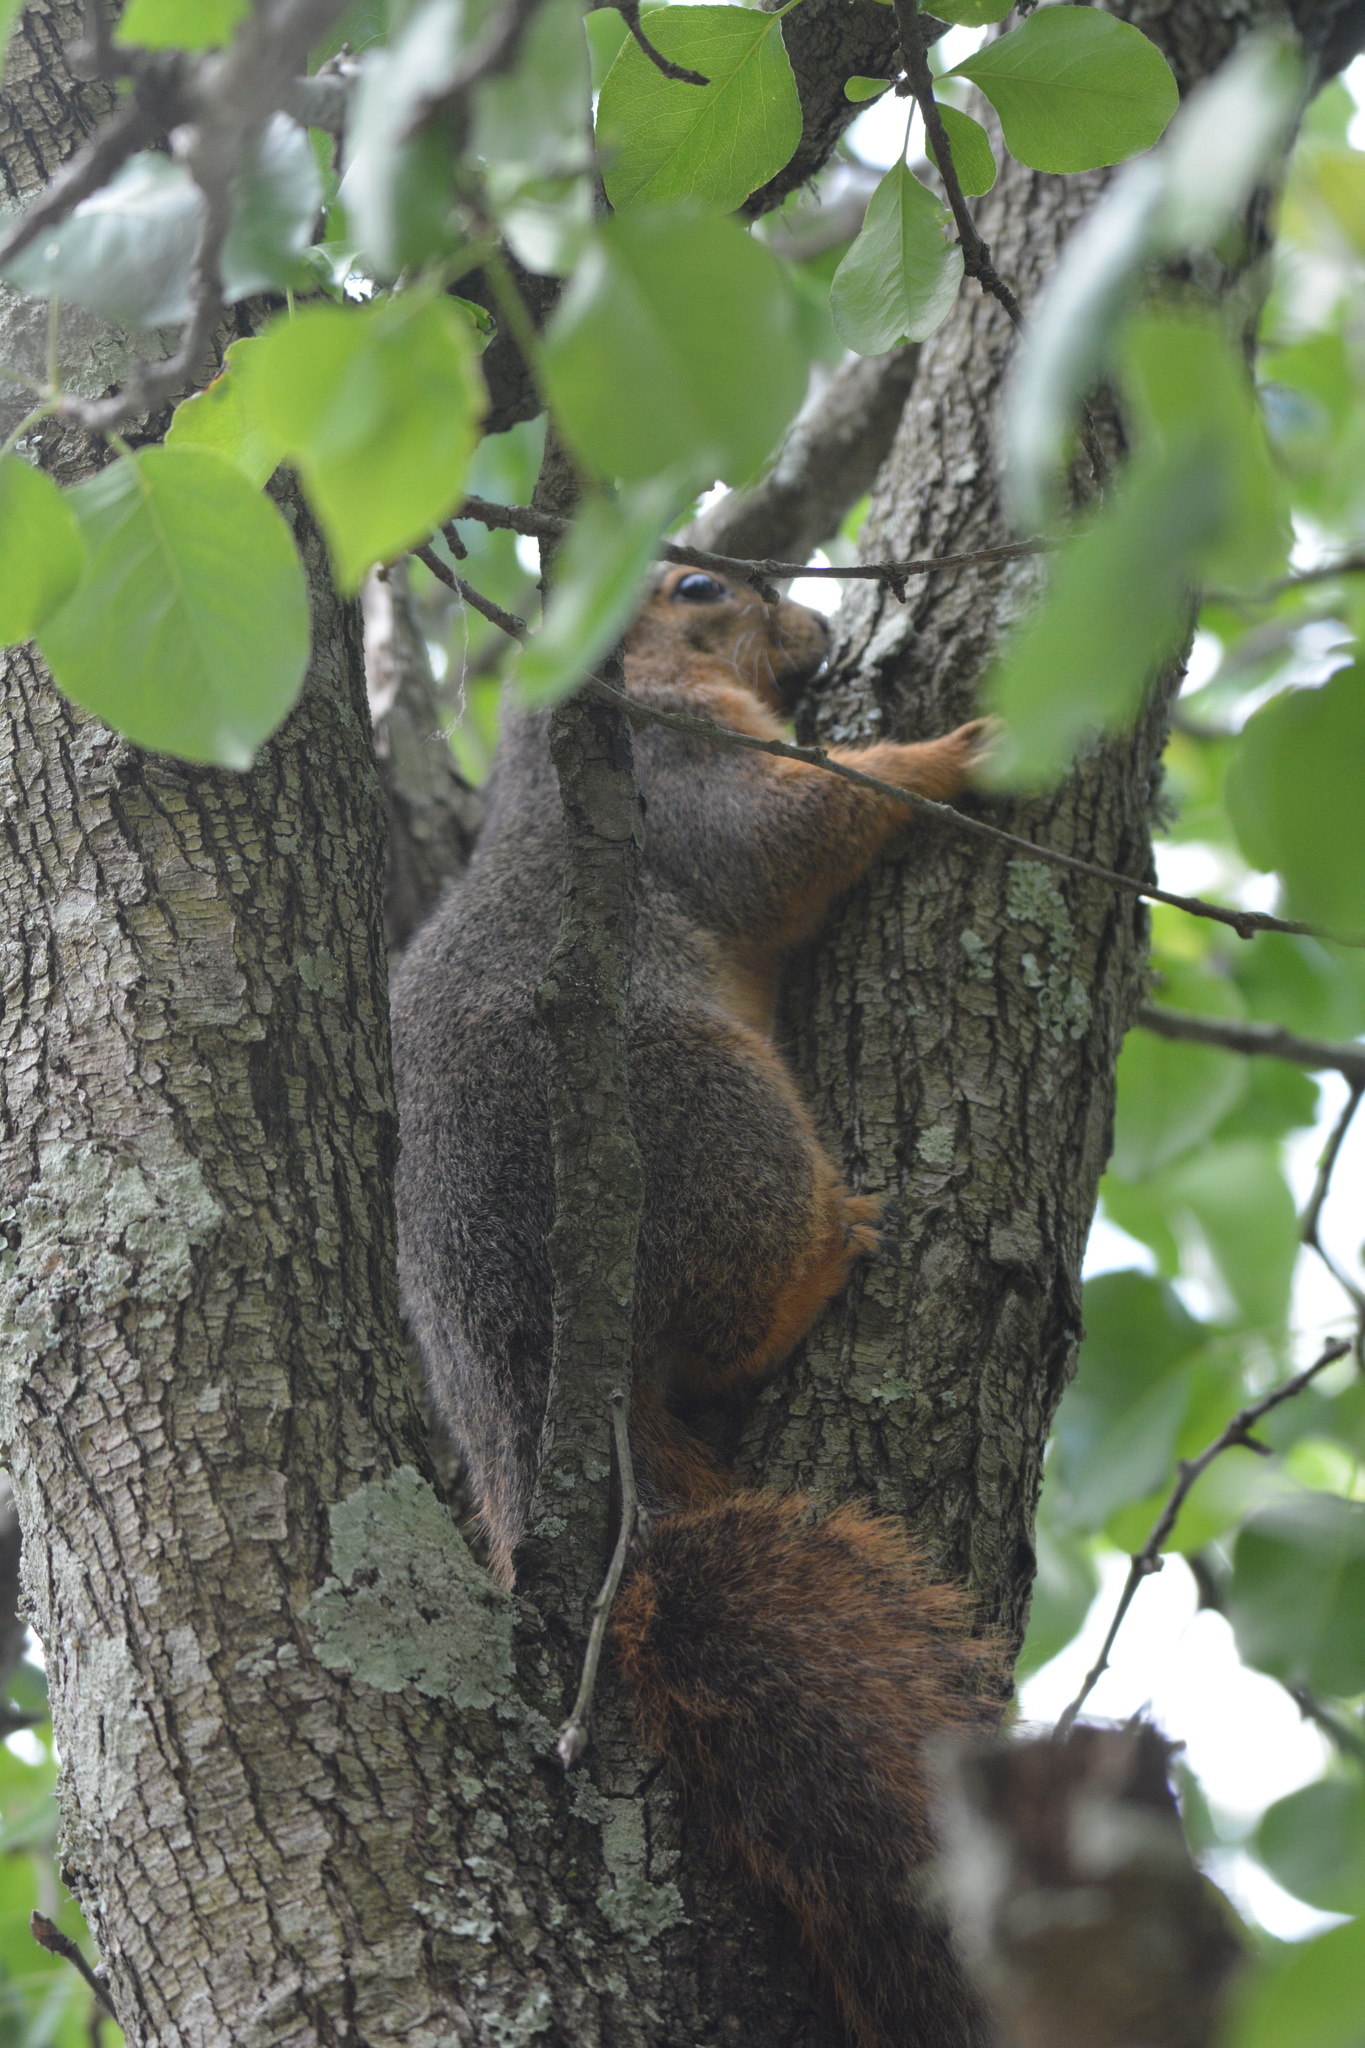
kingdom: Animalia
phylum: Chordata
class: Mammalia
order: Rodentia
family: Sciuridae
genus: Sciurus
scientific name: Sciurus niger
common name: Fox squirrel
